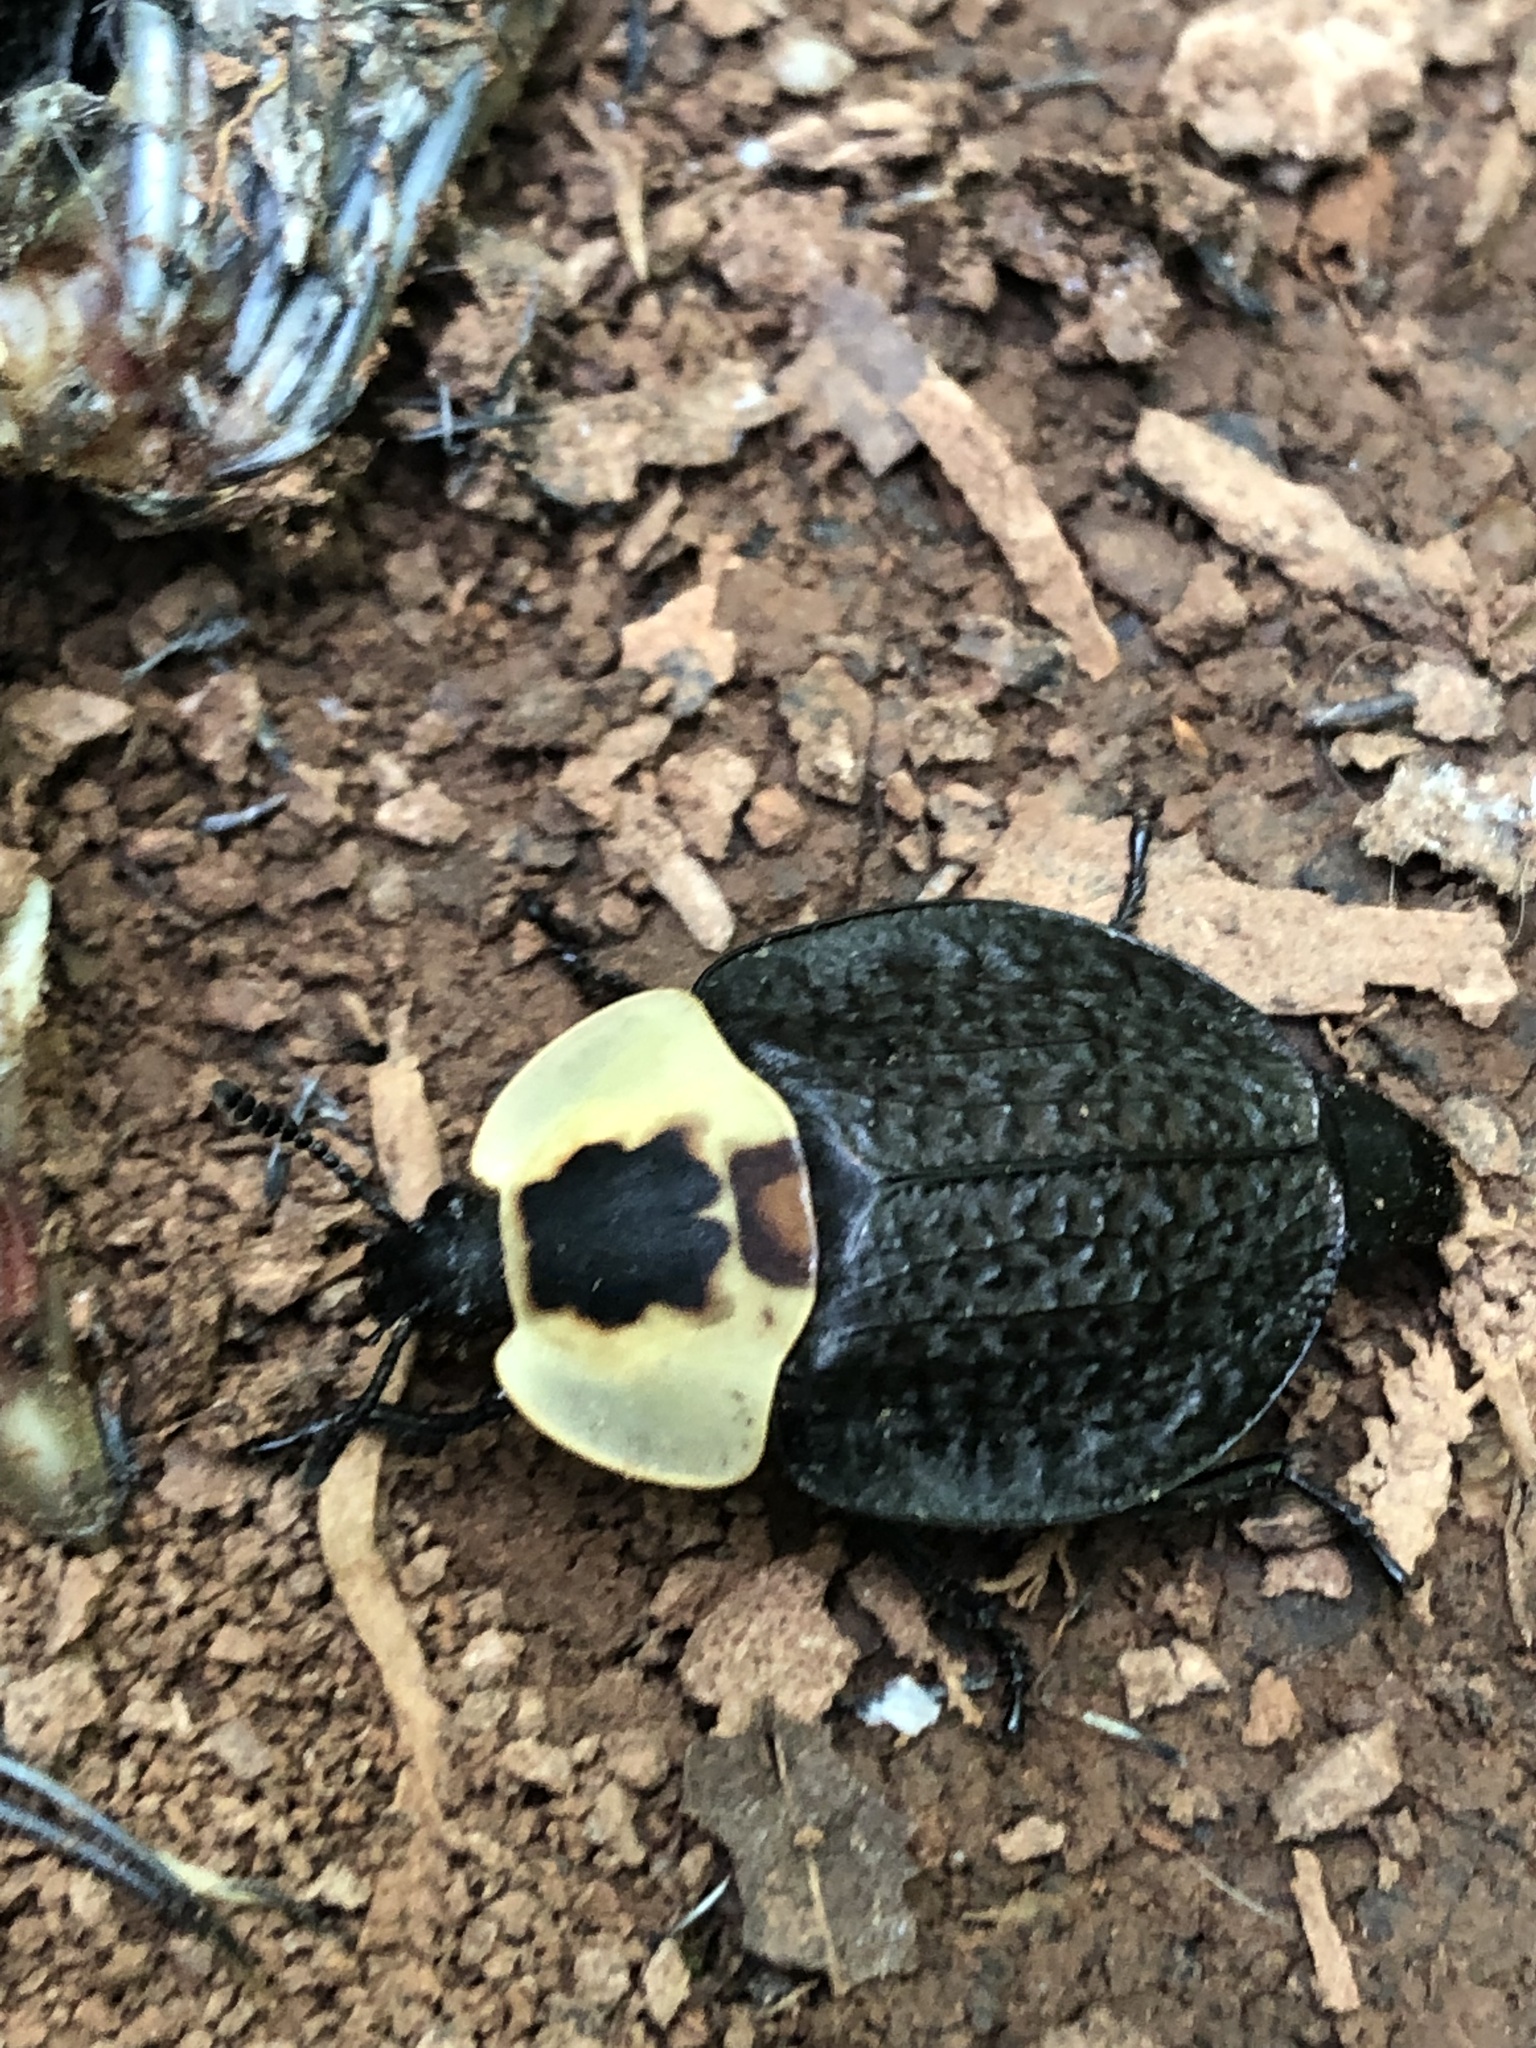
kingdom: Animalia
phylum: Arthropoda
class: Insecta
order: Coleoptera
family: Staphylinidae
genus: Necrophila
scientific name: Necrophila americana
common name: American carrion beetle
